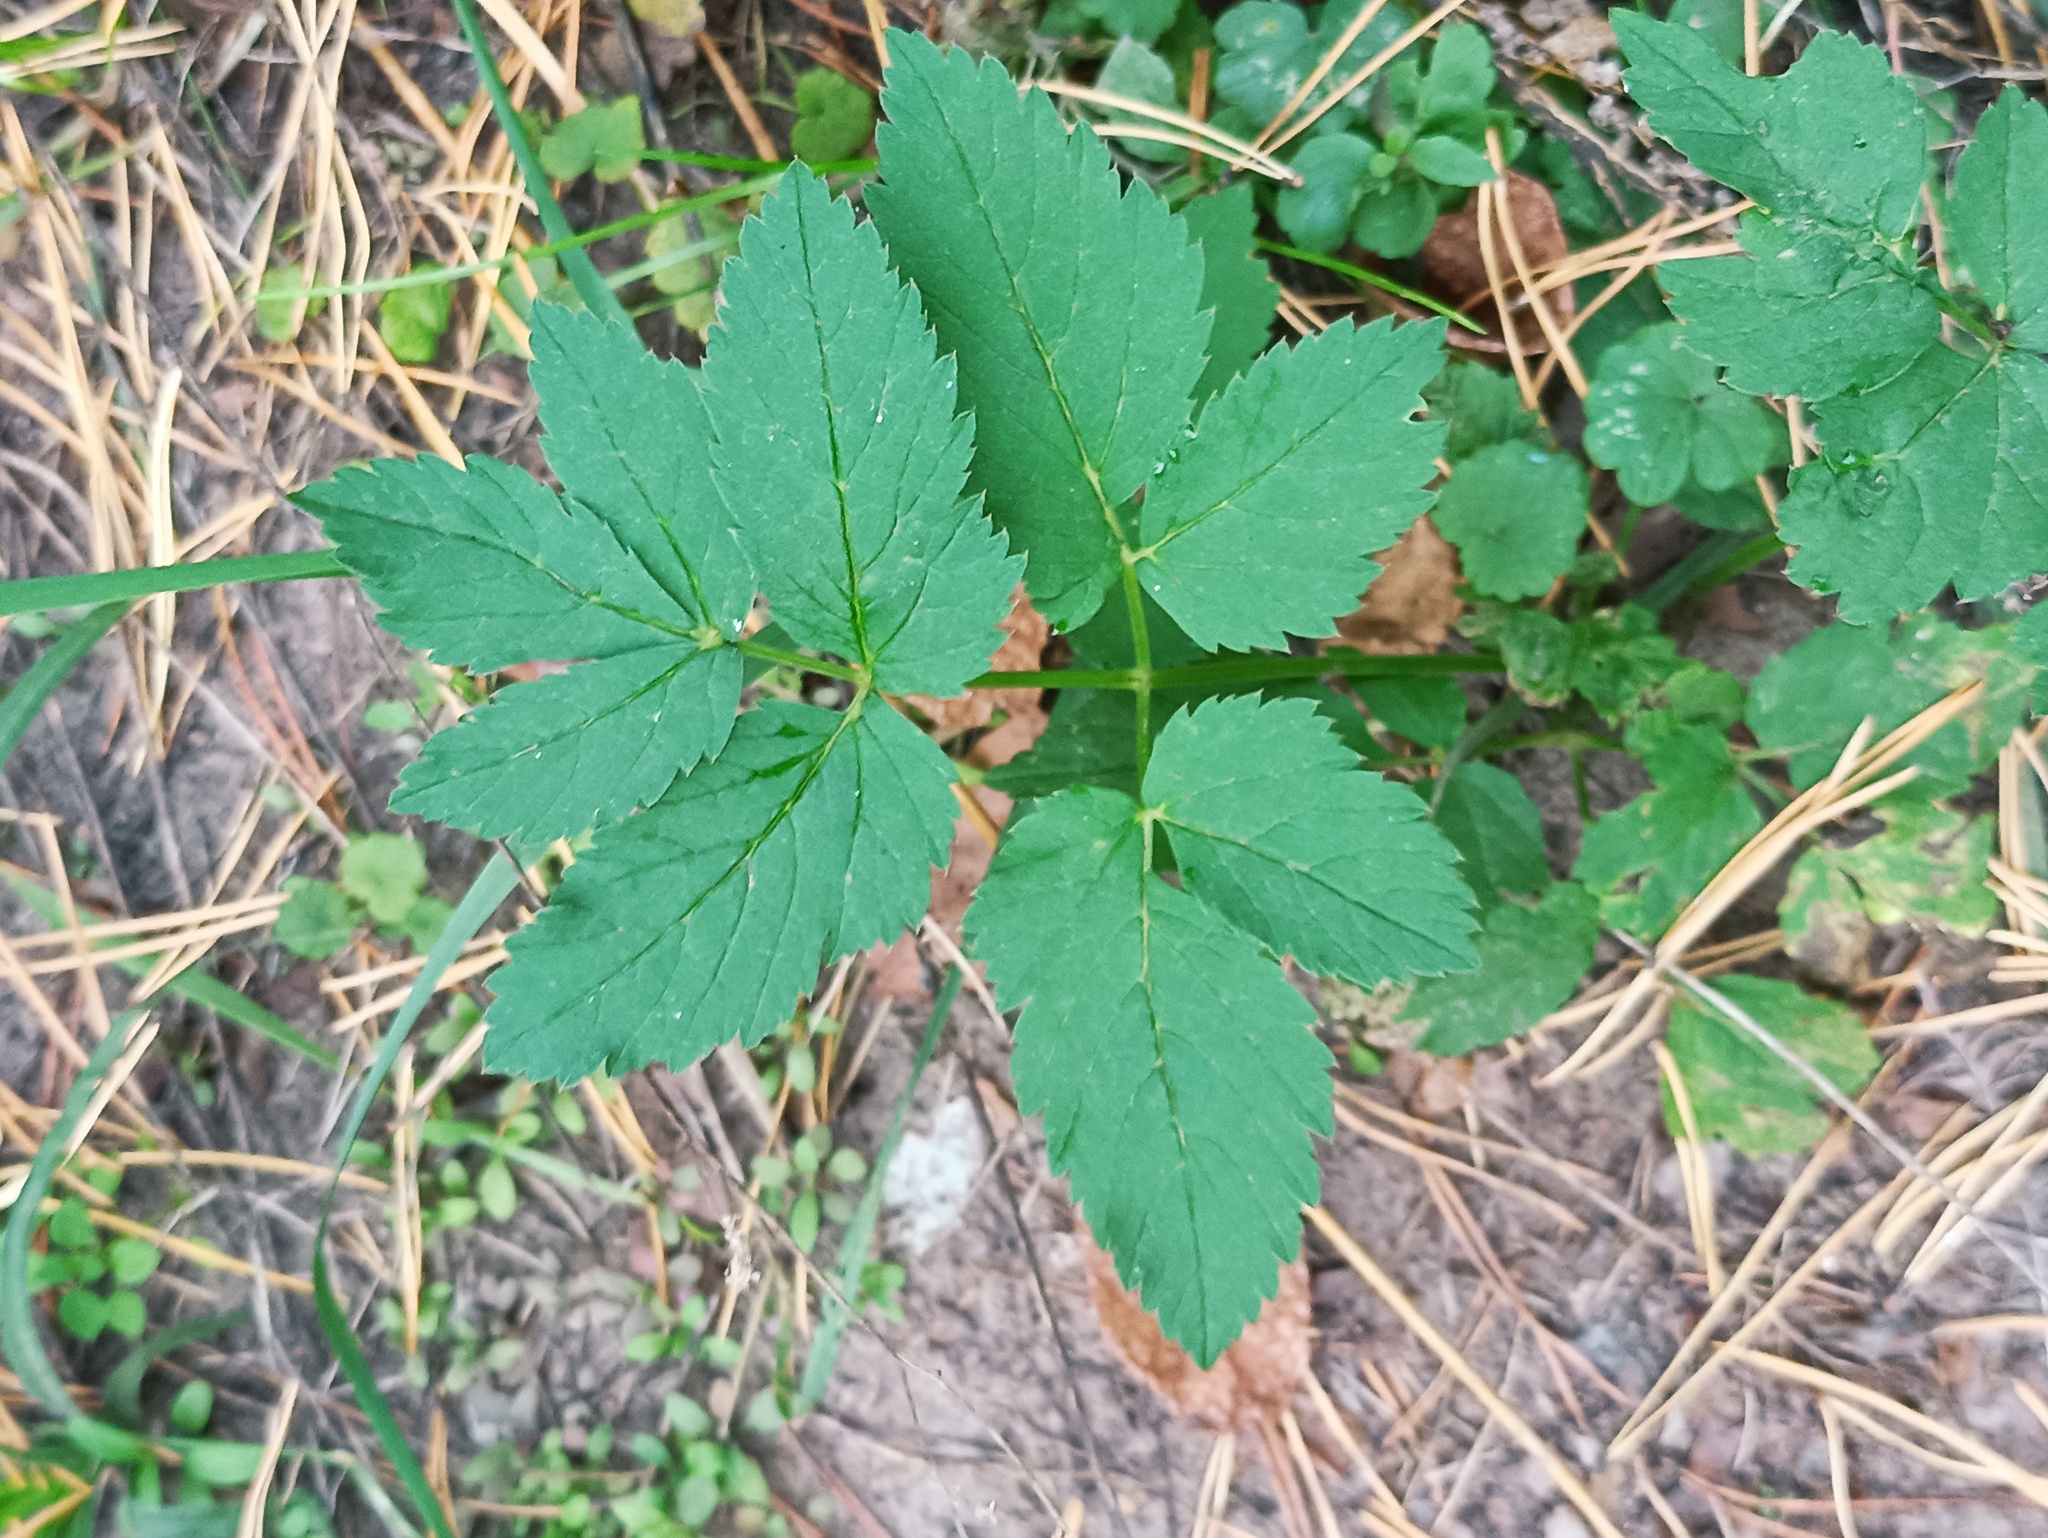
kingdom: Plantae
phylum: Tracheophyta
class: Magnoliopsida
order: Apiales
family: Apiaceae
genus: Aegopodium
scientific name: Aegopodium podagraria
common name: Ground-elder
